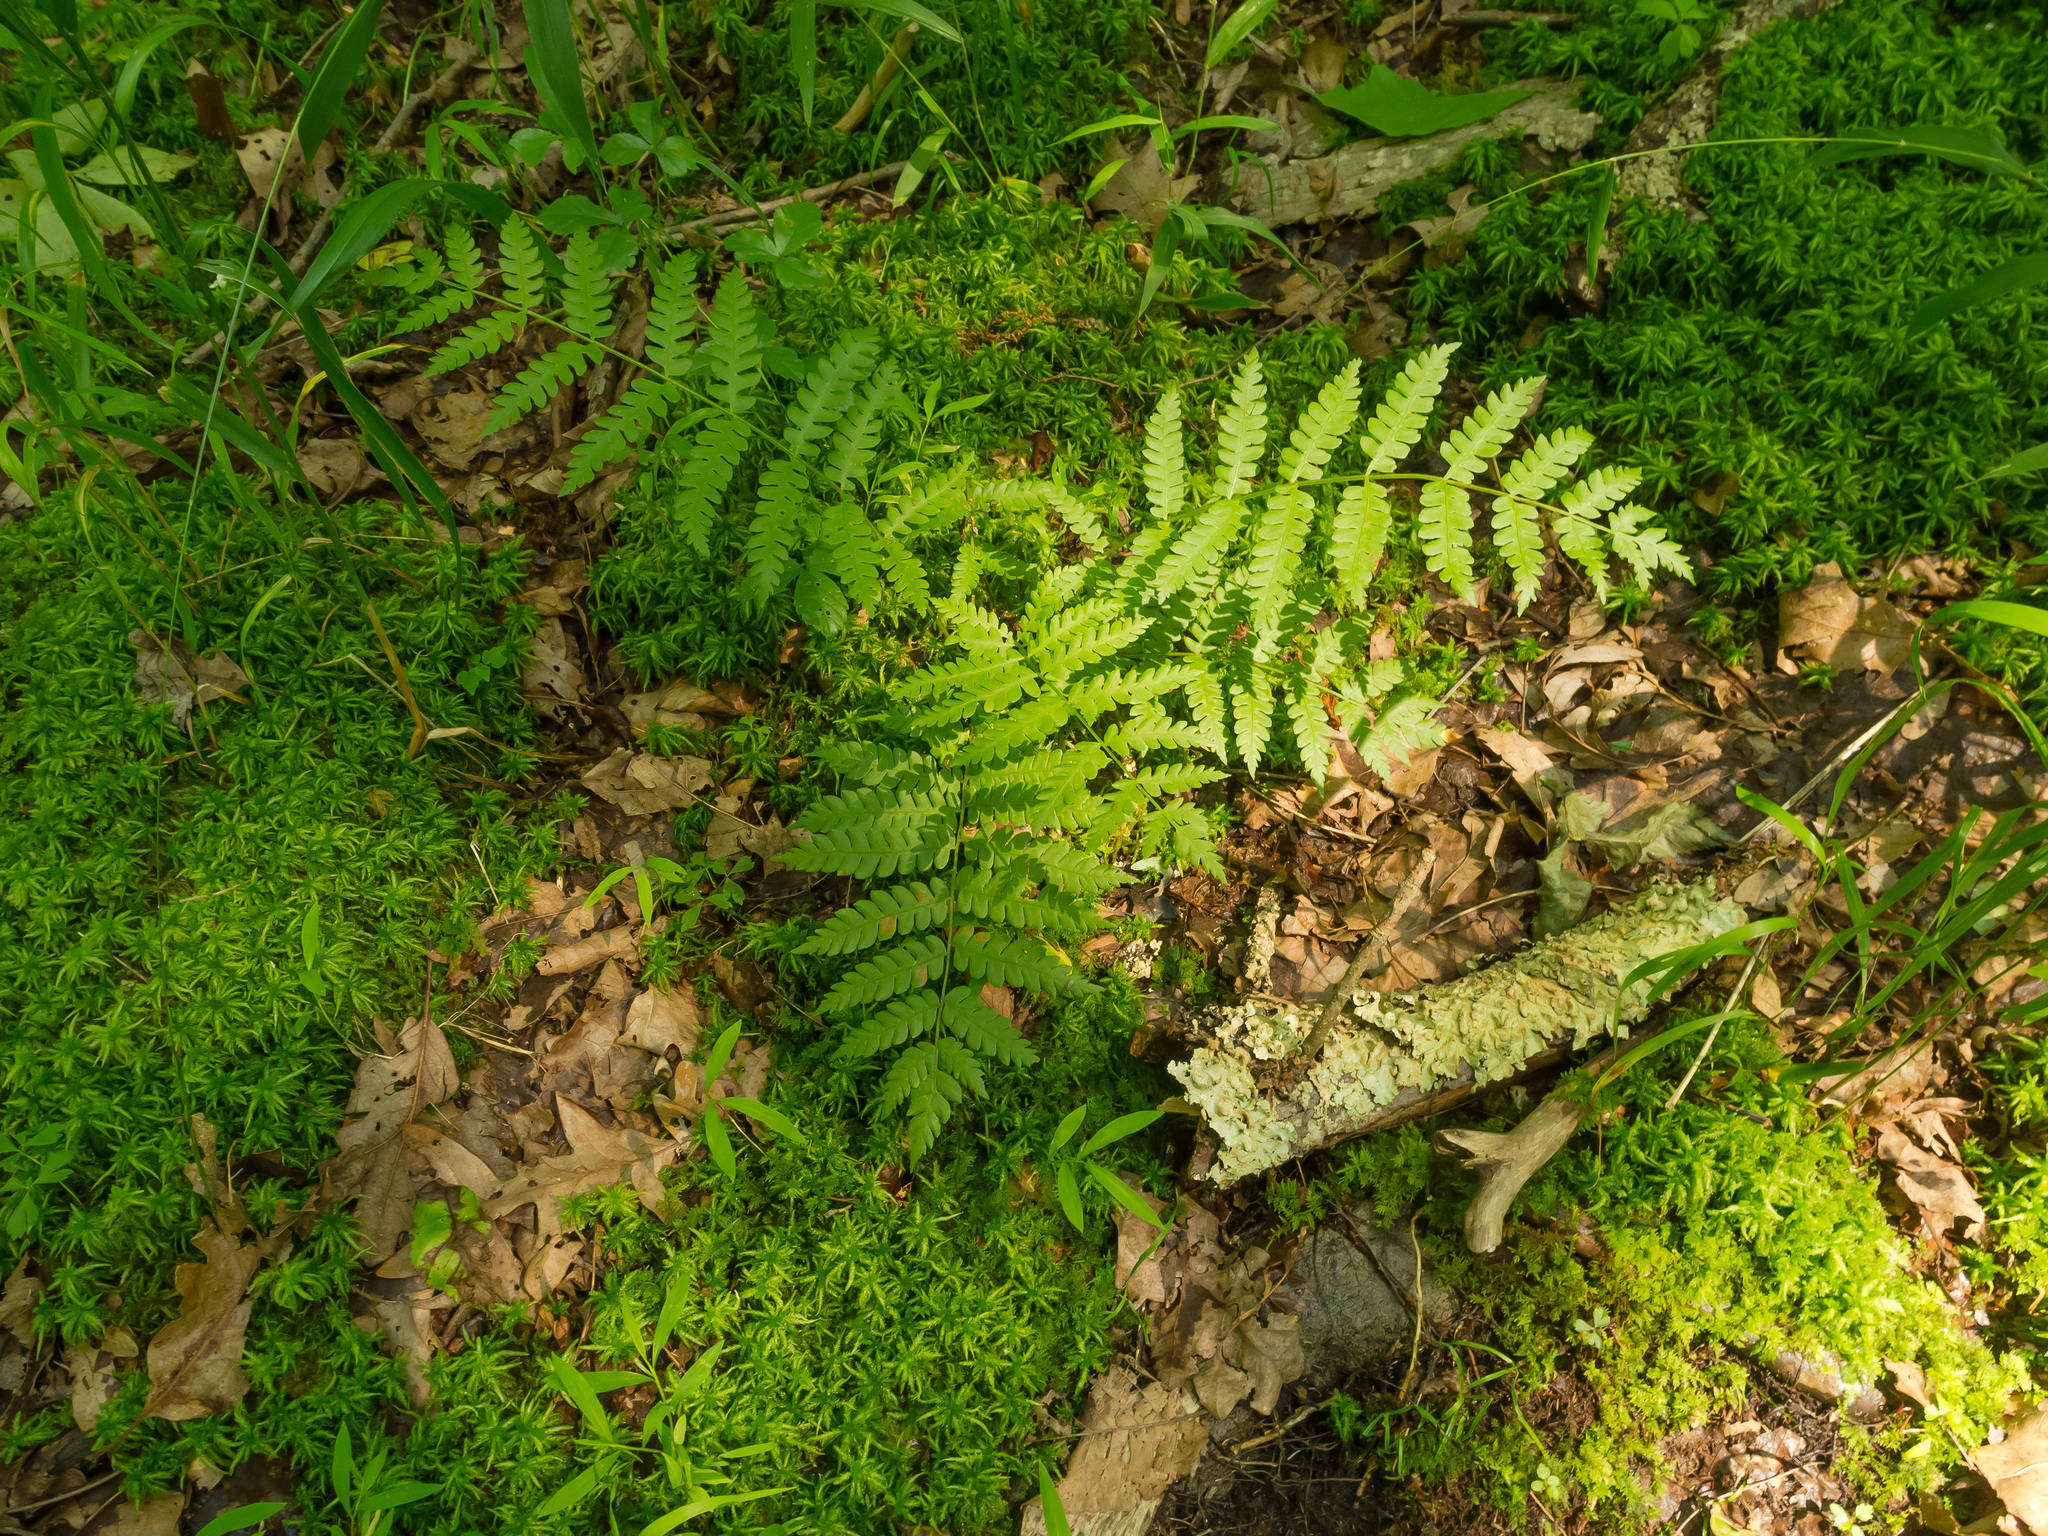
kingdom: Plantae
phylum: Tracheophyta
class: Polypodiopsida
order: Osmundales
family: Osmundaceae
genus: Osmundastrum
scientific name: Osmundastrum cinnamomeum
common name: Cinnamon fern
